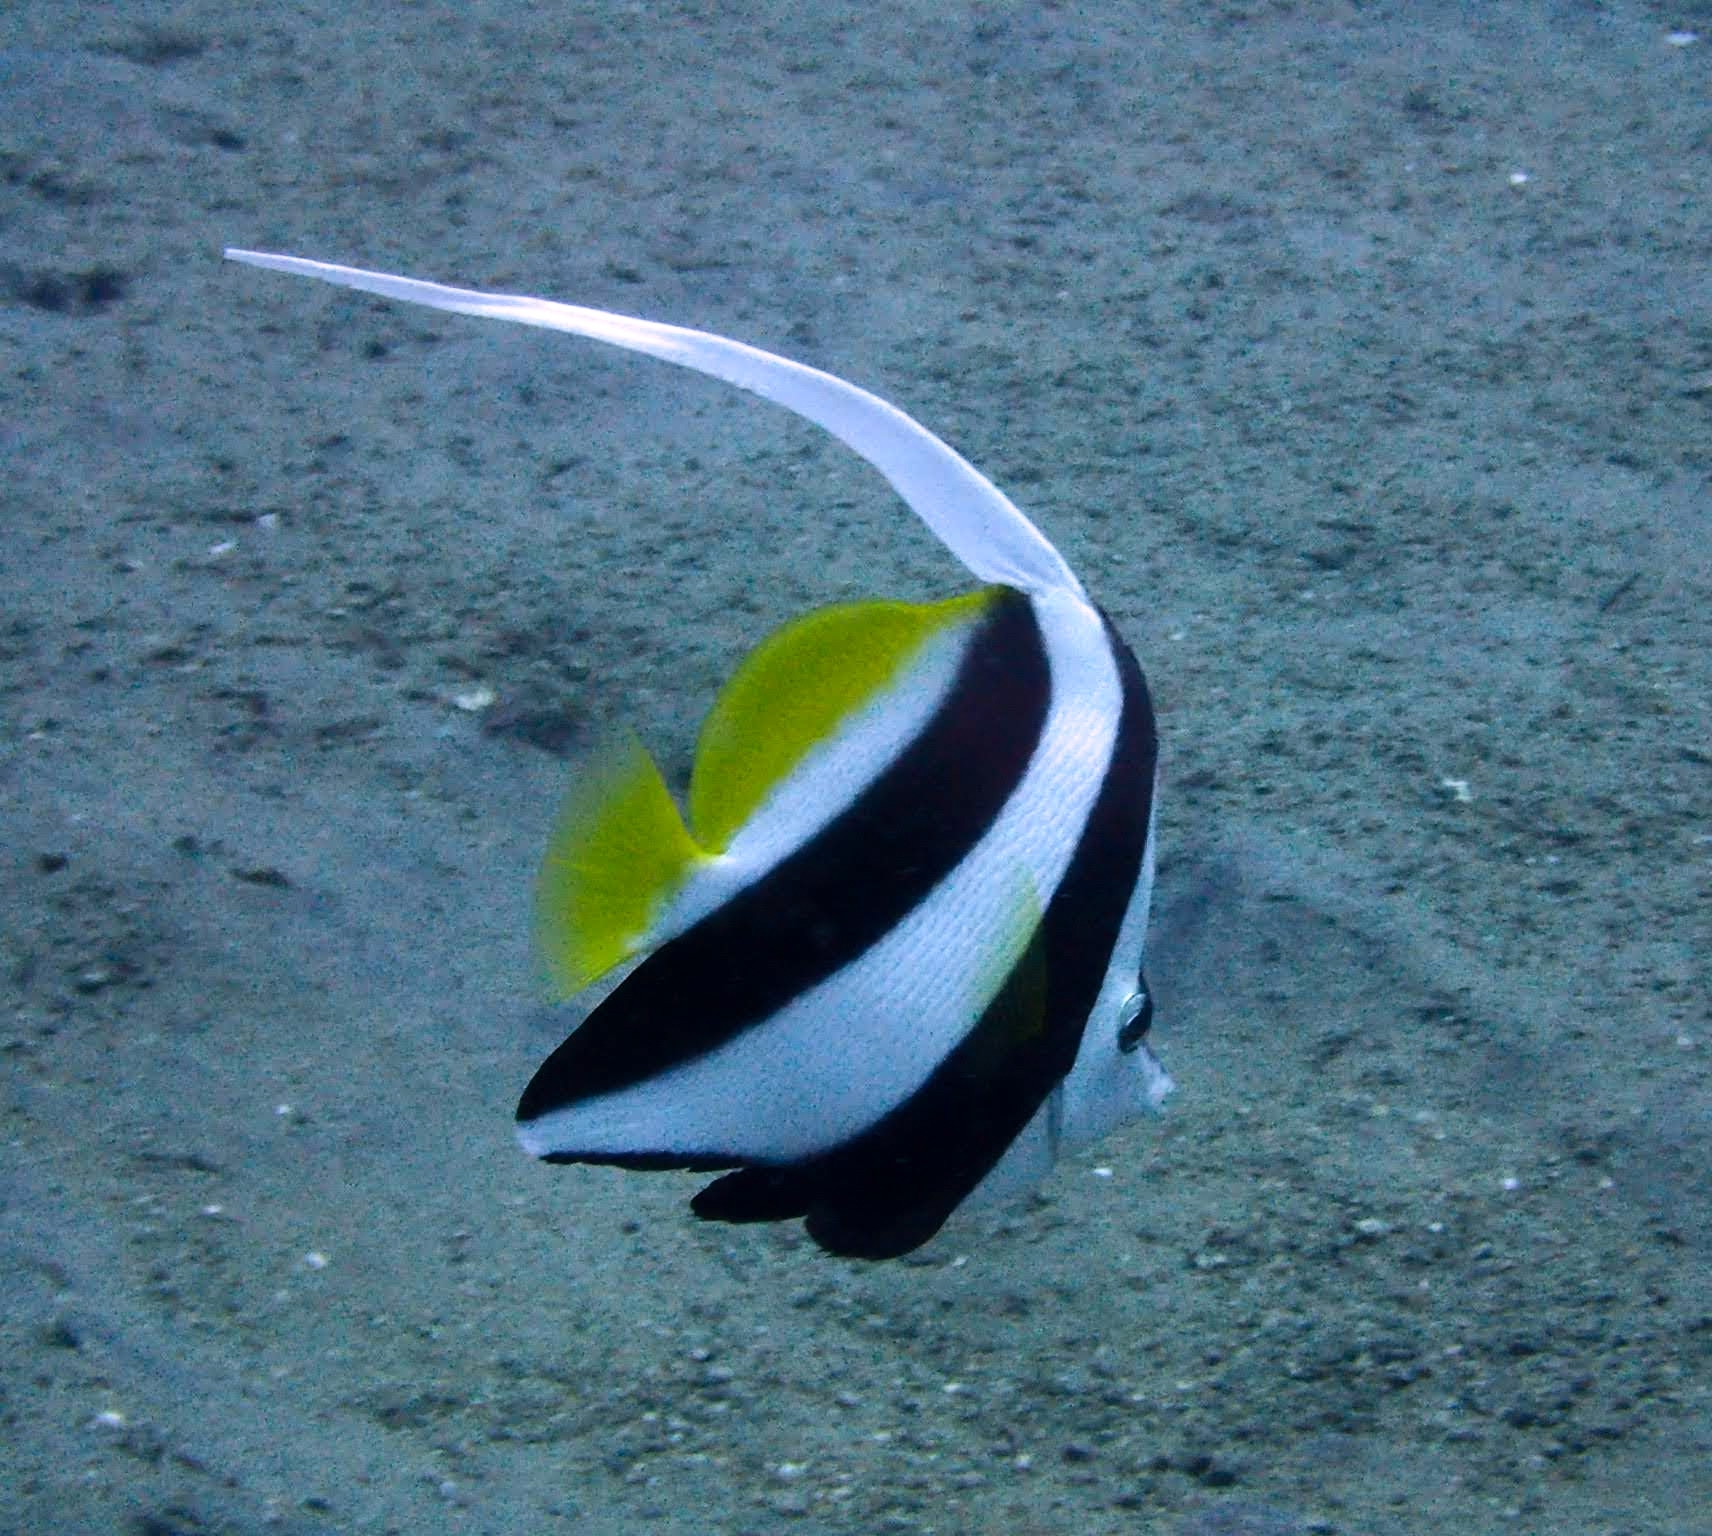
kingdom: Animalia
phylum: Chordata
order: Perciformes
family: Chaetodontidae
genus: Heniochus
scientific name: Heniochus acuminatus
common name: Pennant coralfish
